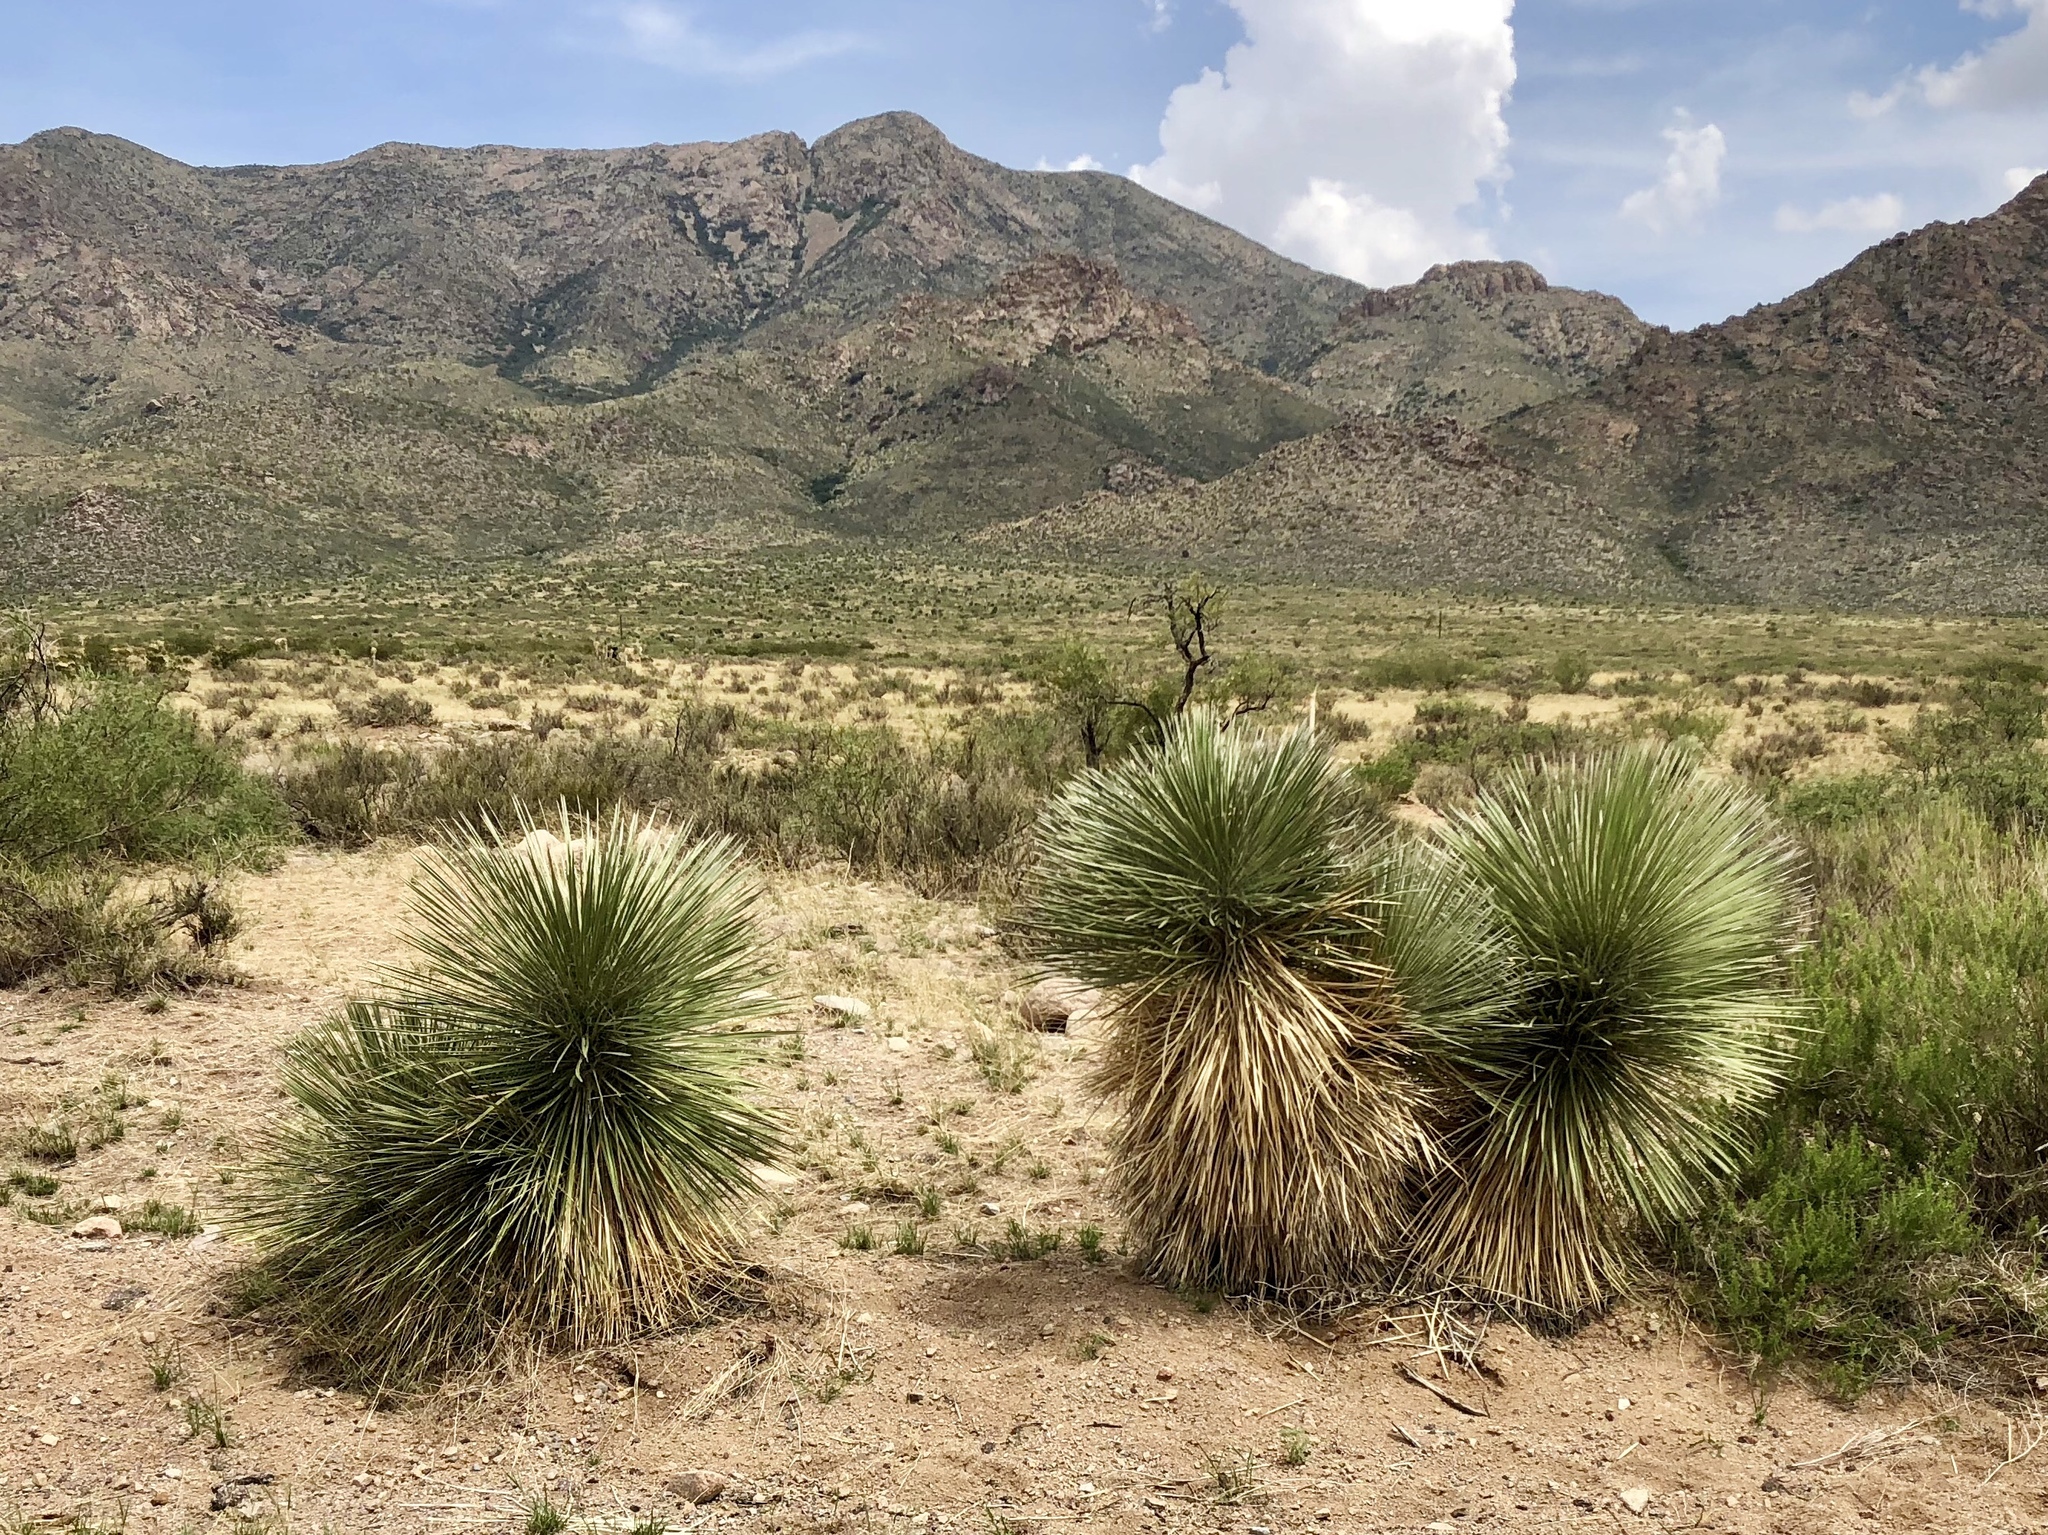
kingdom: Plantae
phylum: Tracheophyta
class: Liliopsida
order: Asparagales
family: Asparagaceae
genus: Yucca
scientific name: Yucca elata
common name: Palmella
